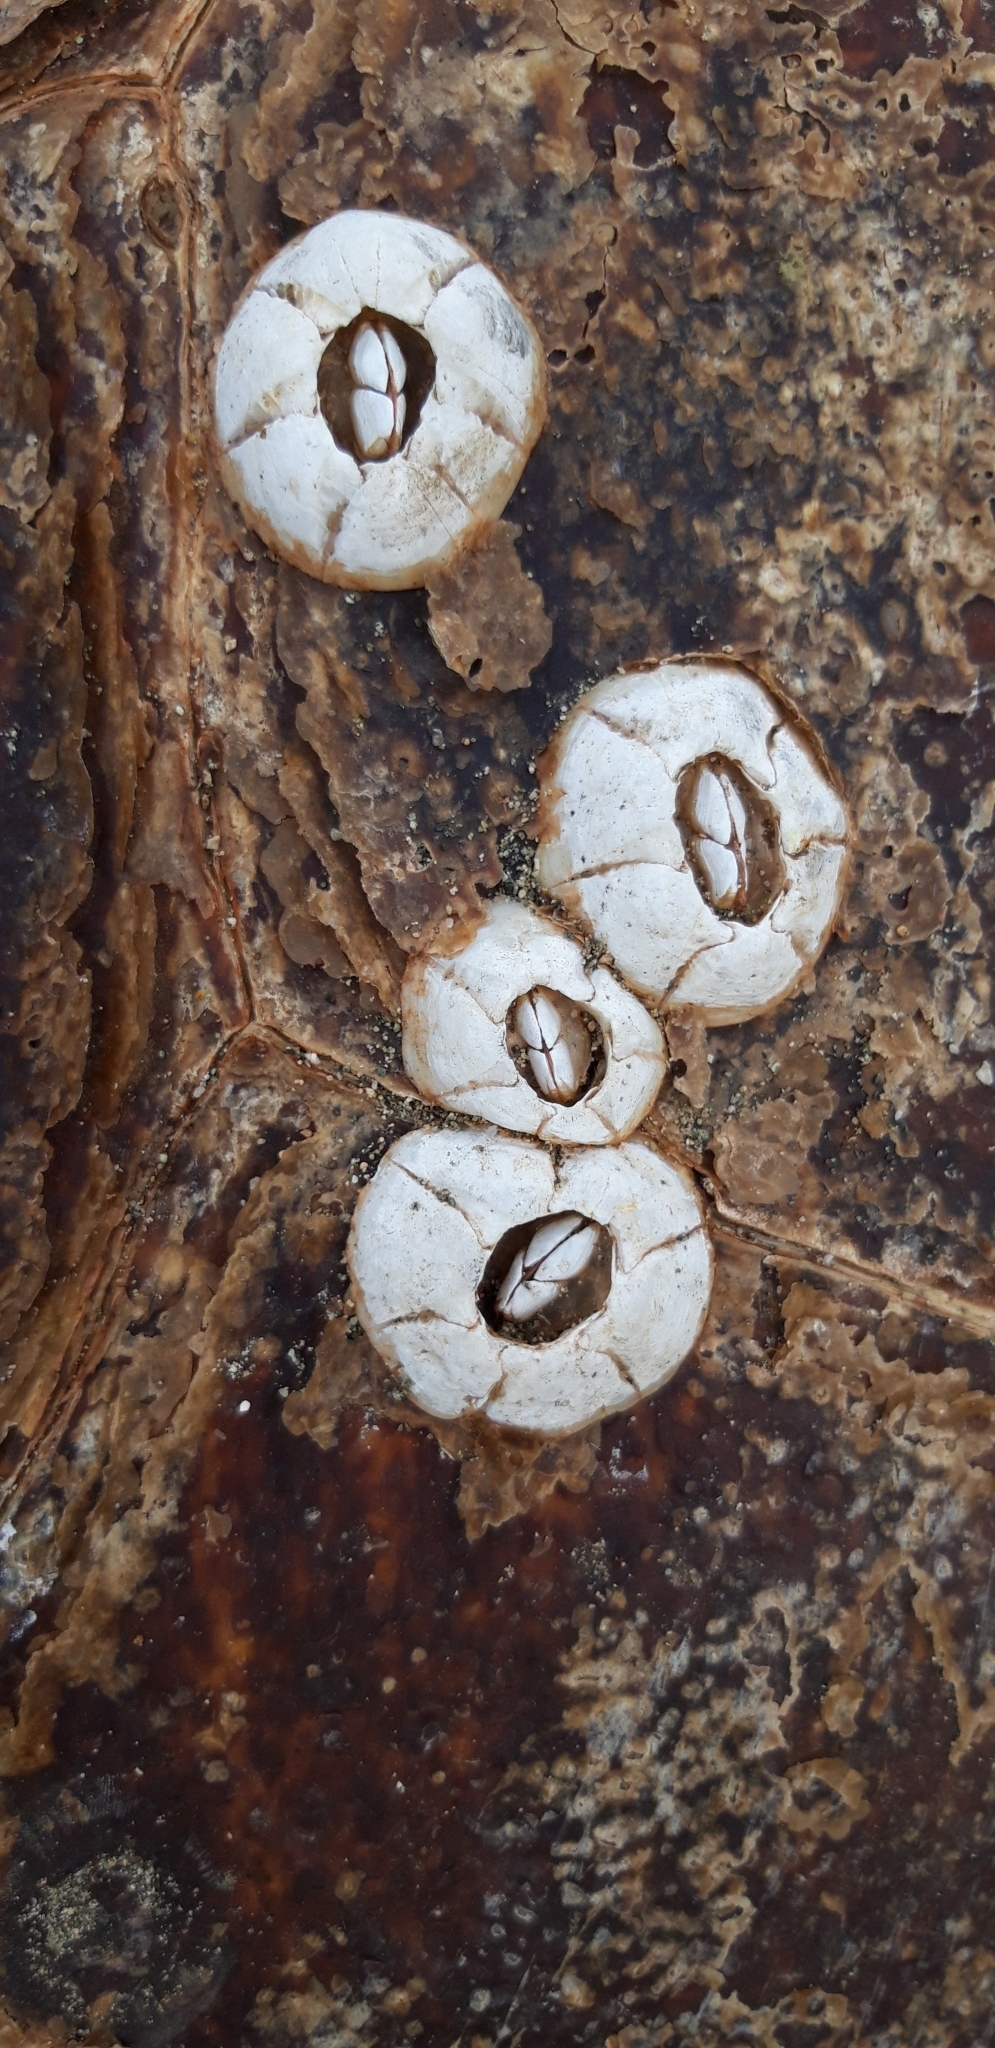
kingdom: Animalia
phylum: Arthropoda
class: Maxillopoda
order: Sessilia
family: Chelonibiidae
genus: Chelonibia
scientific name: Chelonibia testudinaria
